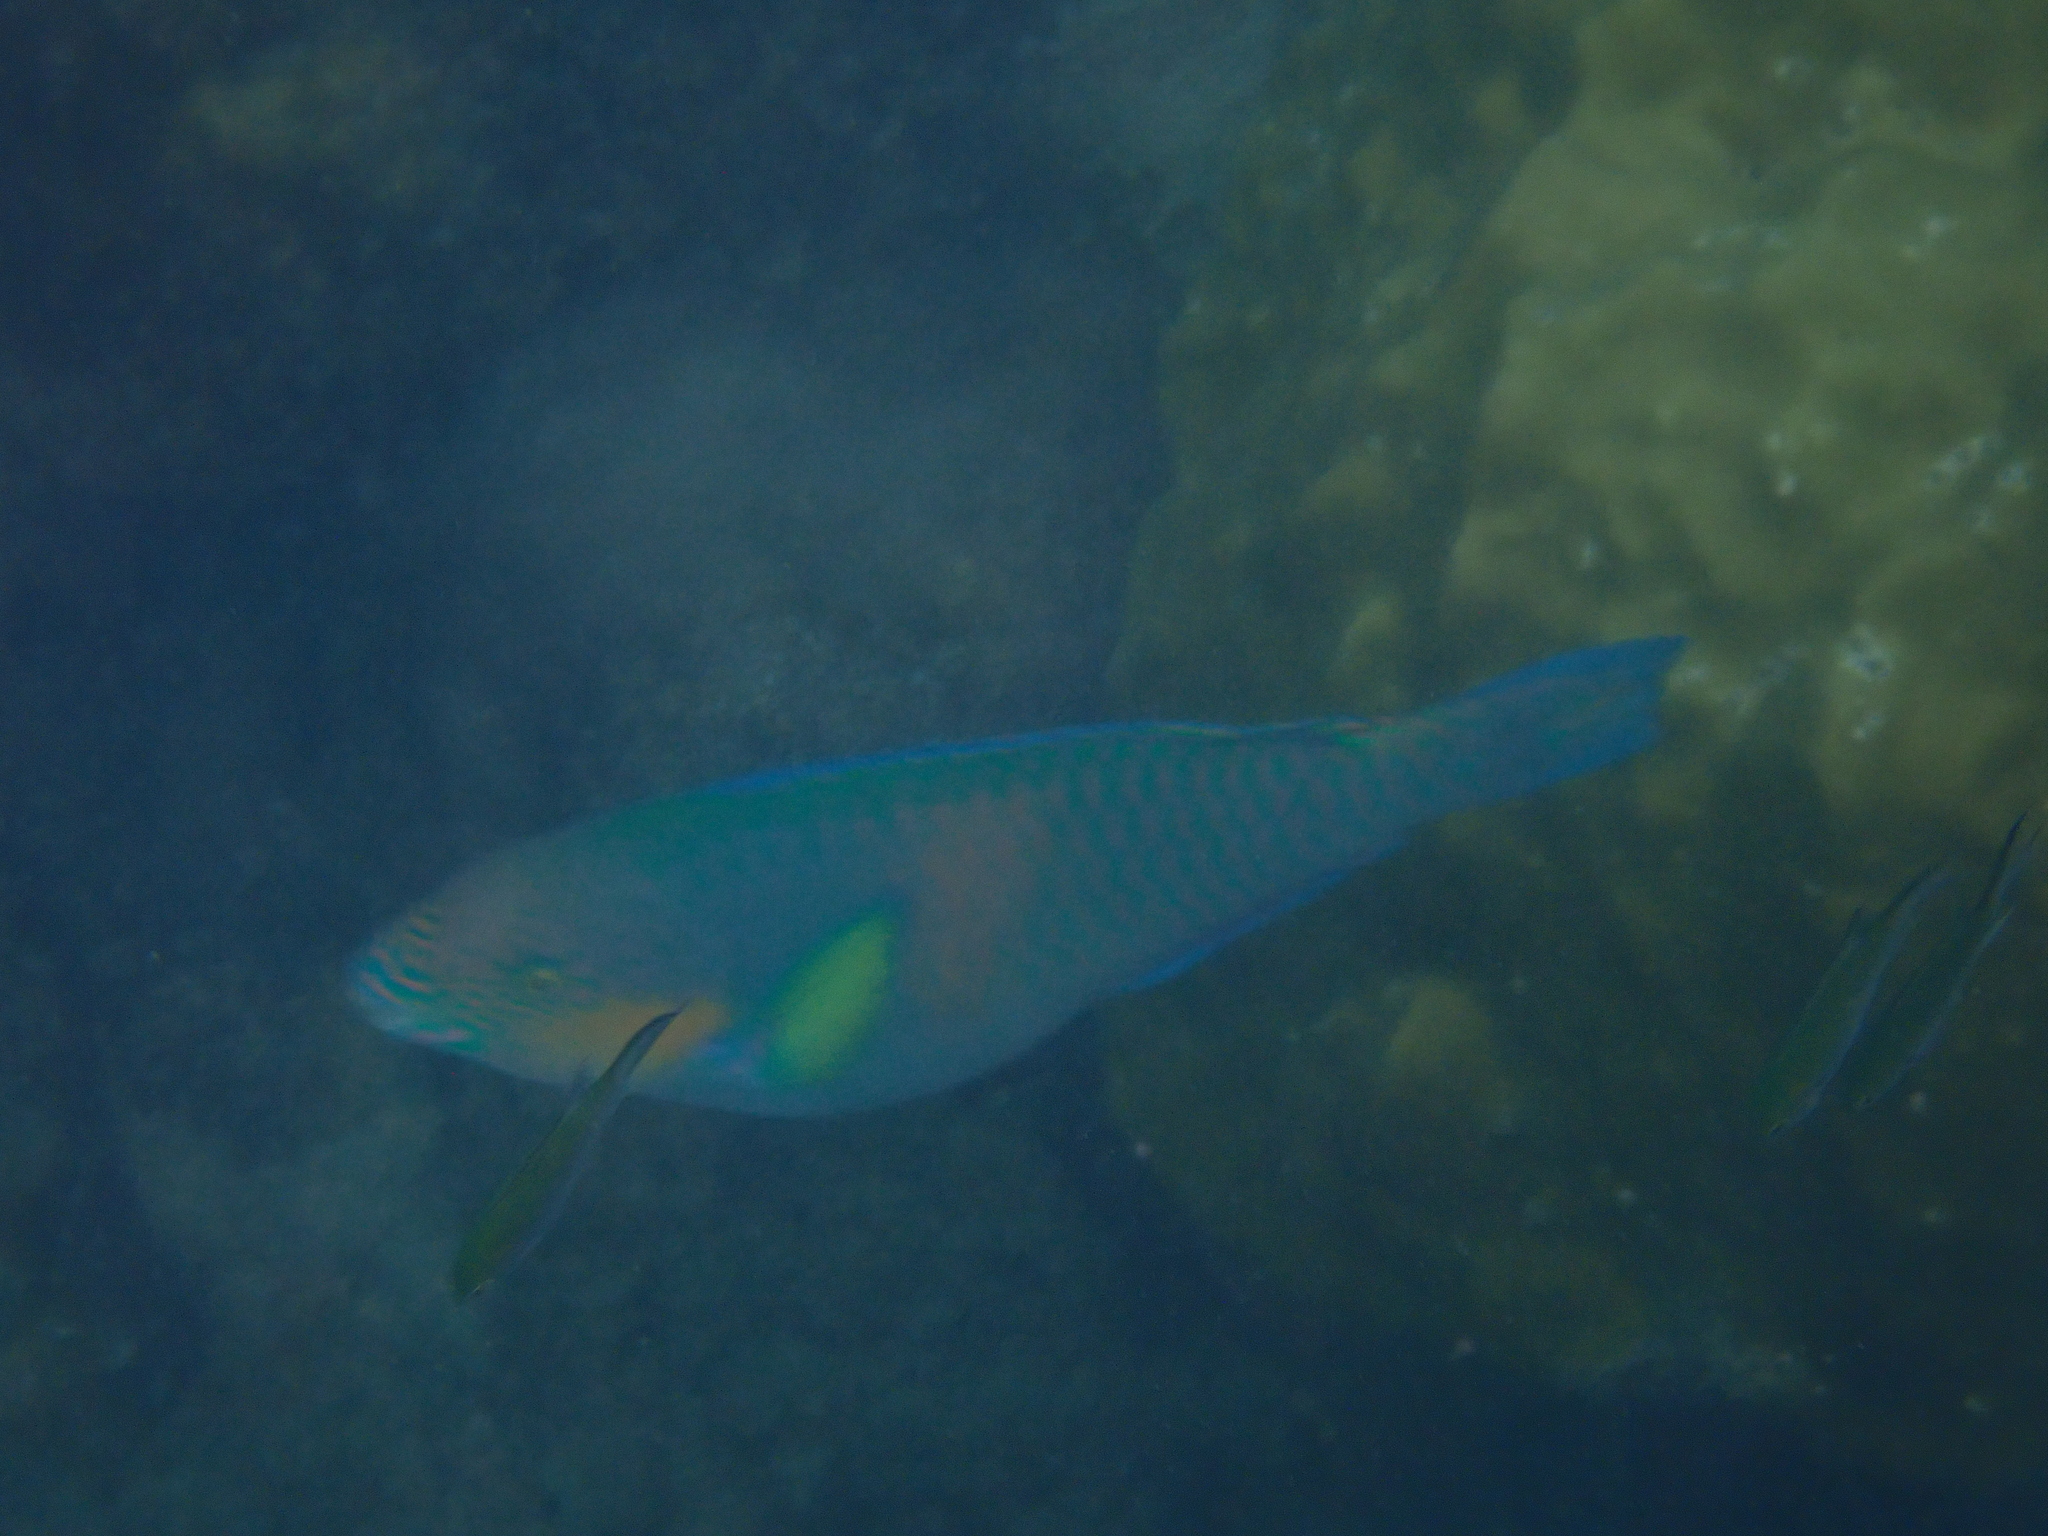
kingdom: Animalia
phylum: Chordata
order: Perciformes
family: Scaridae
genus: Scarus
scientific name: Scarus rivulatus
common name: Surf parrotfish
